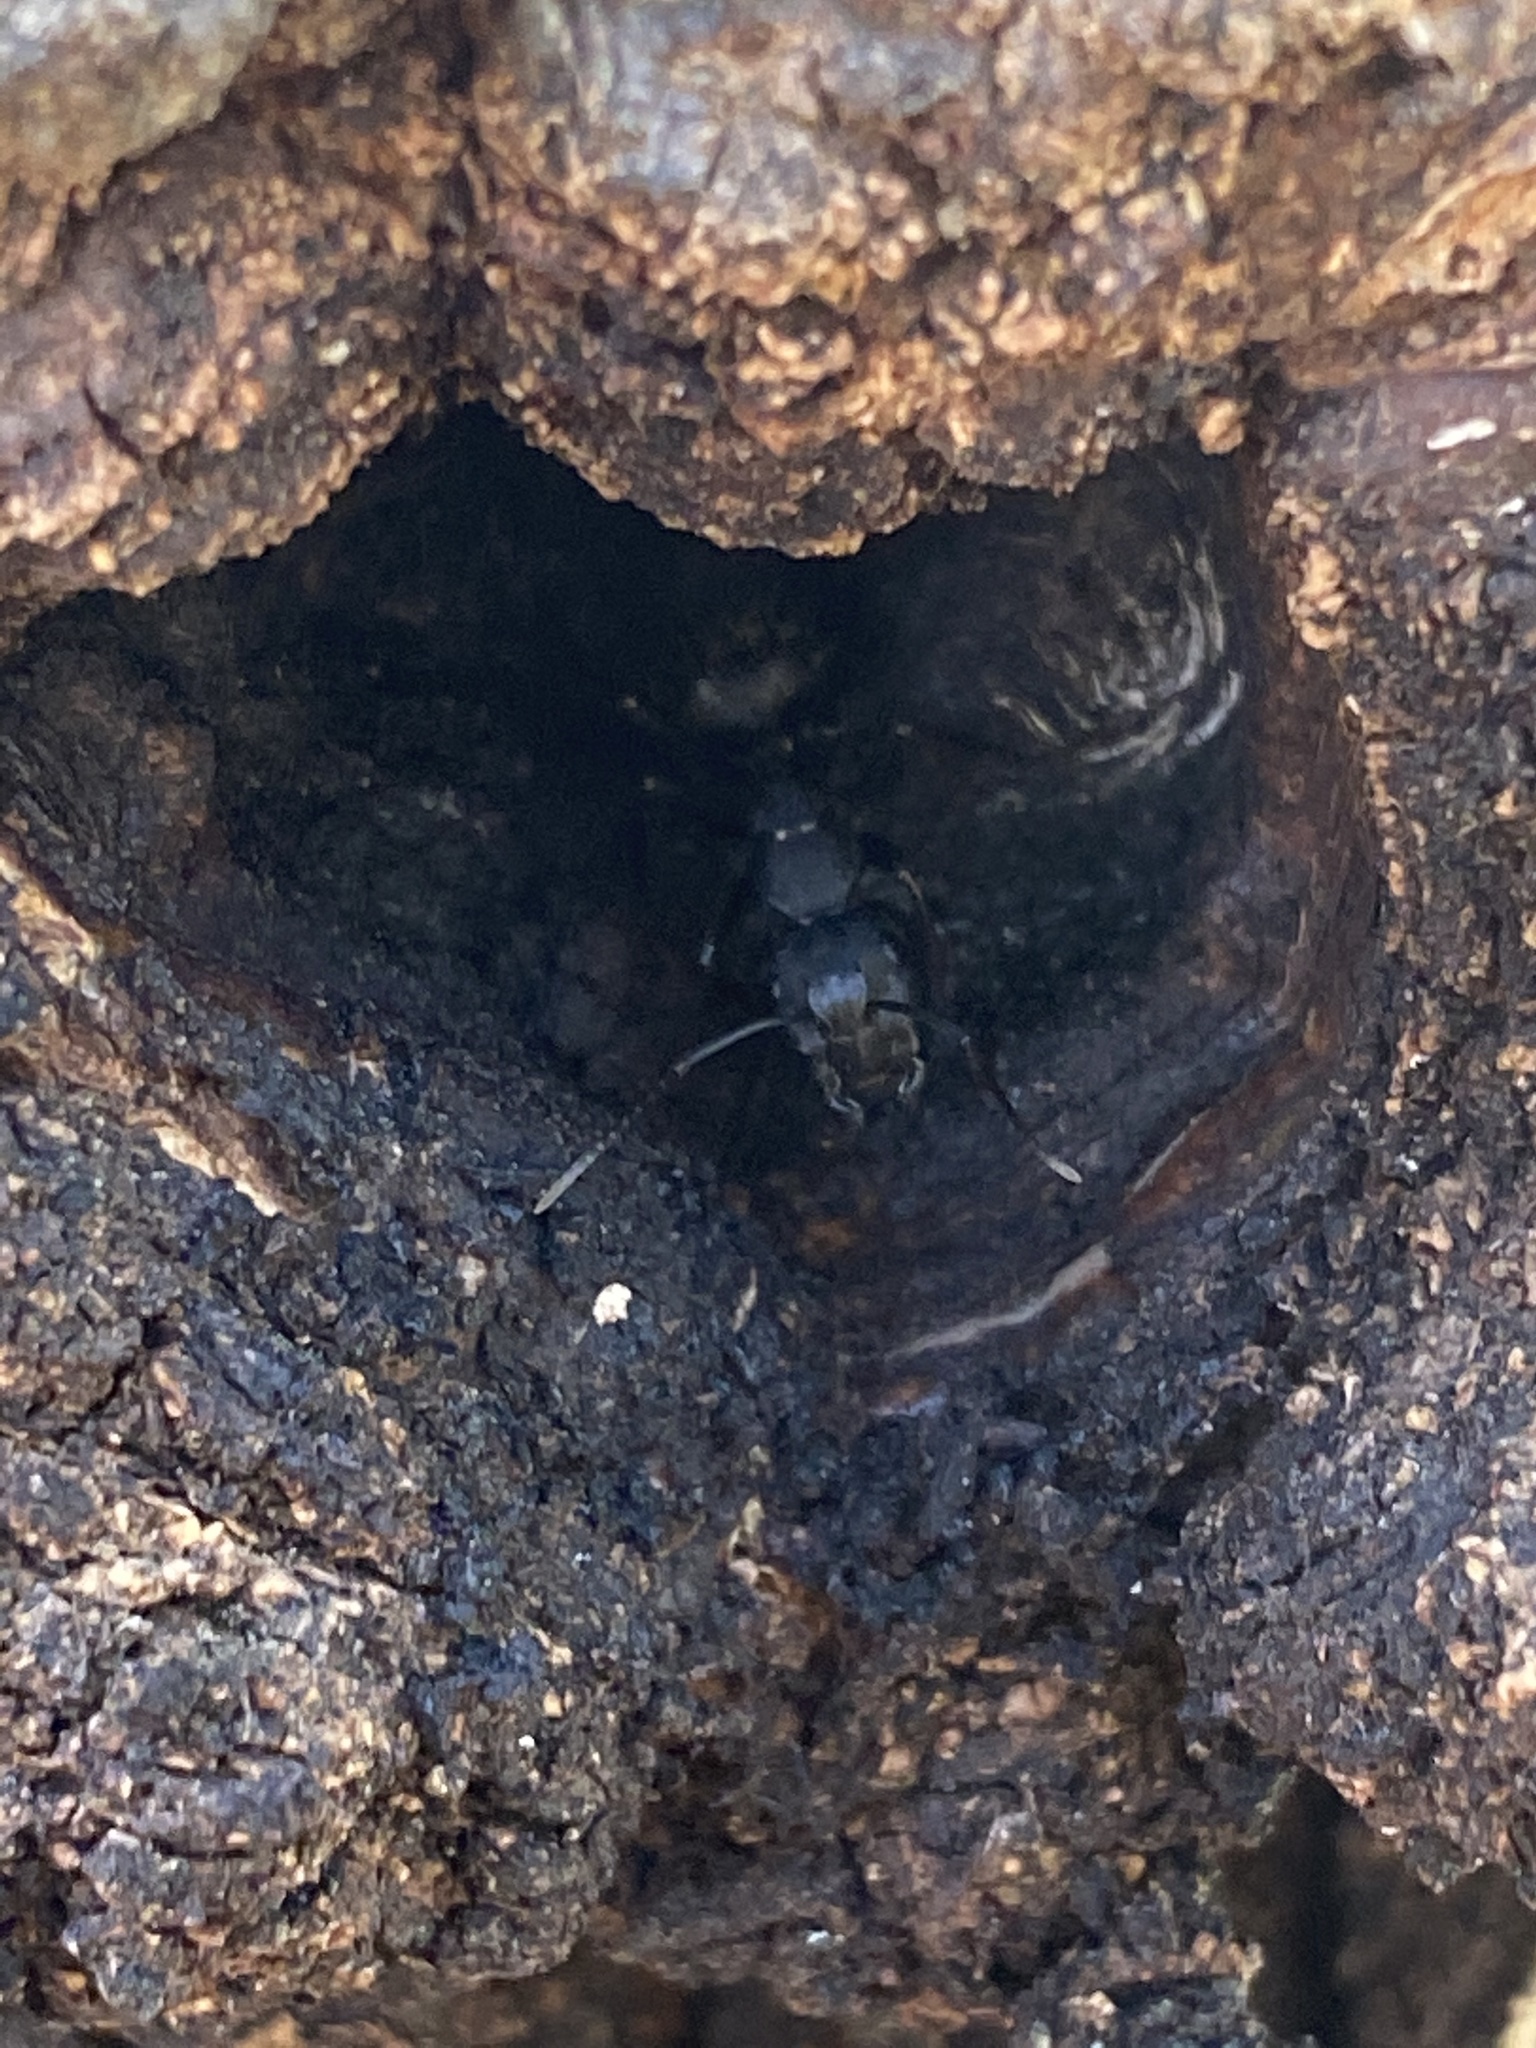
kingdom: Animalia
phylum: Arthropoda
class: Insecta
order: Hymenoptera
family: Formicidae
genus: Camponotus
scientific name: Camponotus pennsylvanicus
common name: Black carpenter ant
